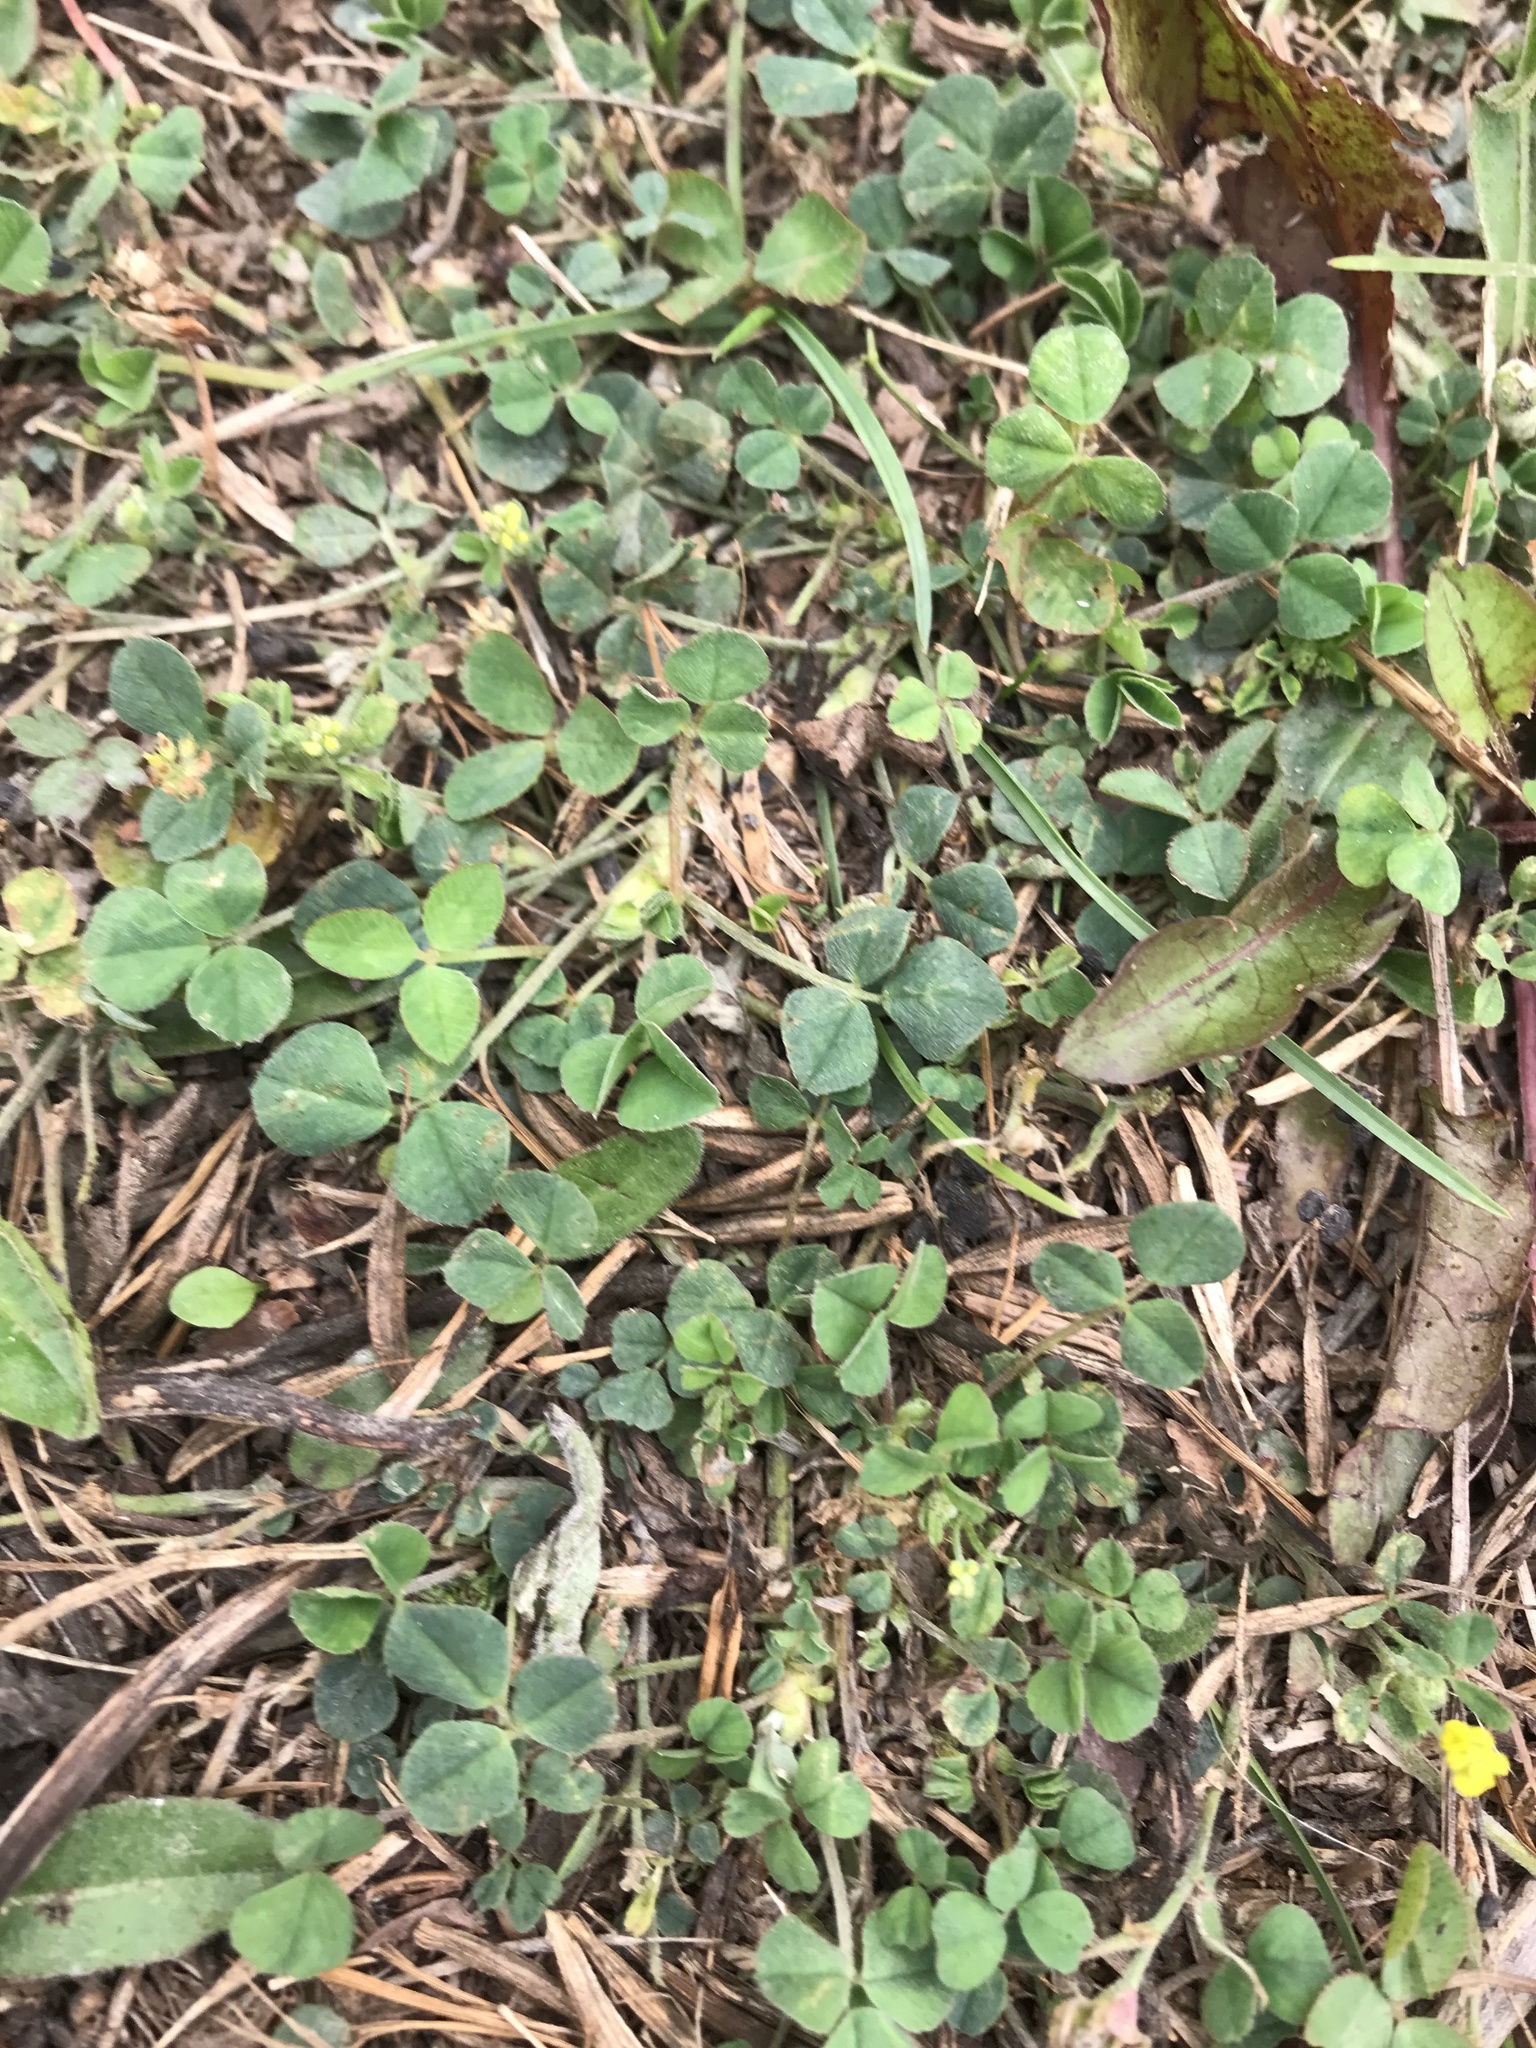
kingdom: Plantae
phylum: Tracheophyta
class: Magnoliopsida
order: Fabales
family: Fabaceae
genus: Medicago
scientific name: Medicago lupulina
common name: Black medick
